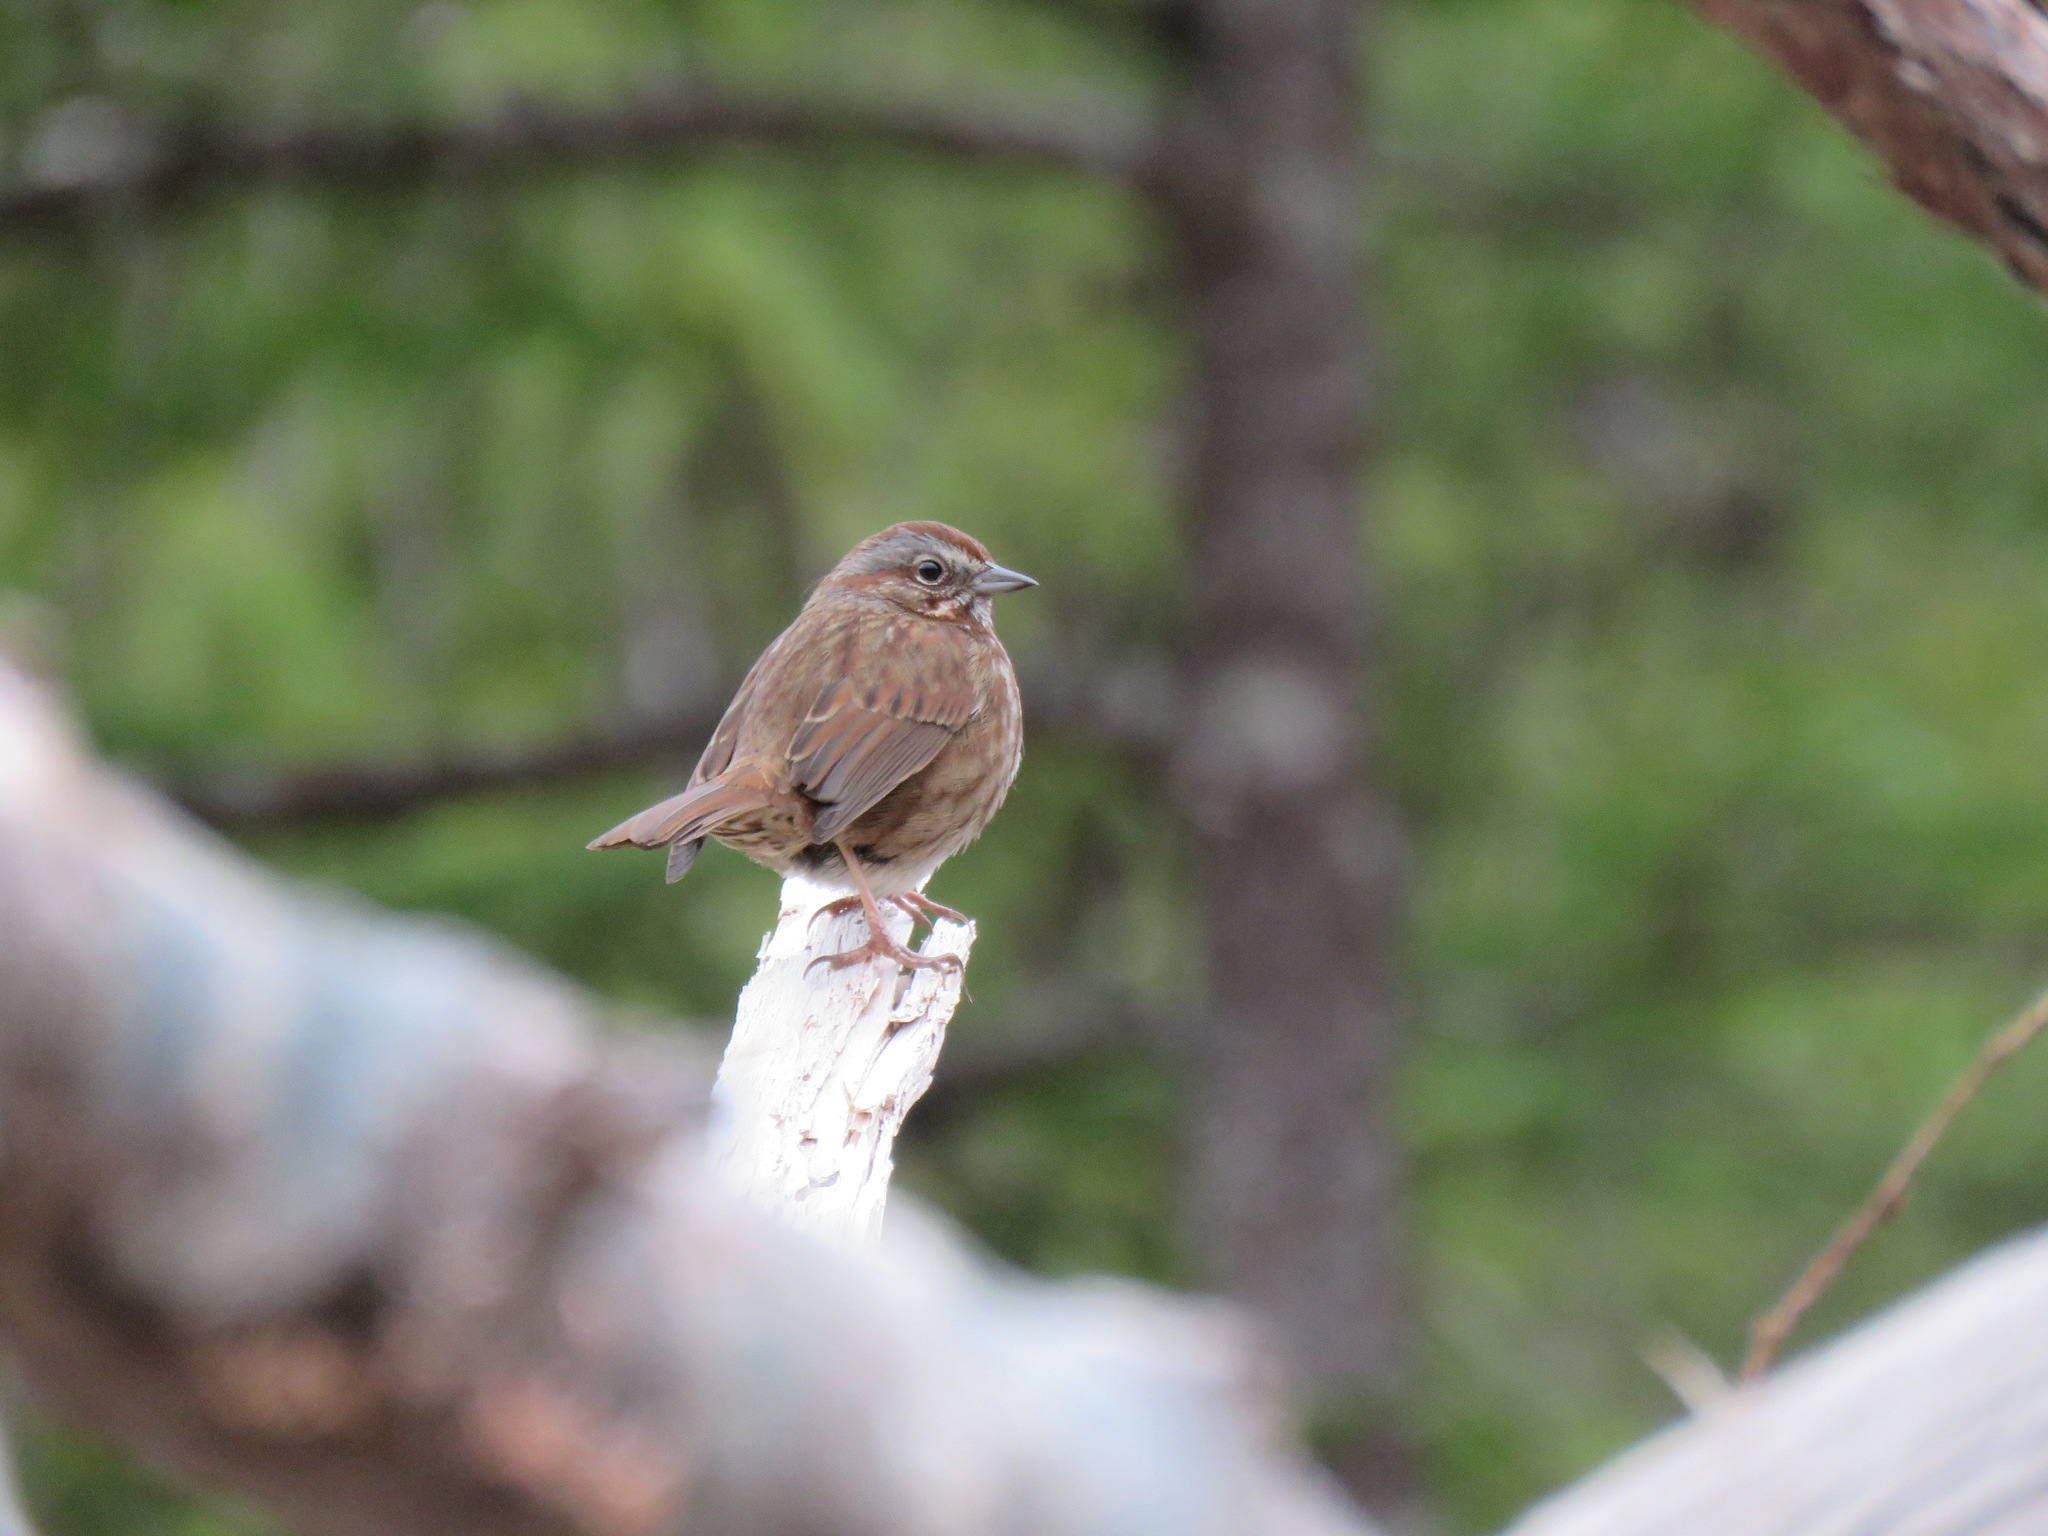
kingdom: Animalia
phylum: Chordata
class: Aves
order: Passeriformes
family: Passerellidae
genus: Melospiza
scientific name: Melospiza melodia
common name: Song sparrow
